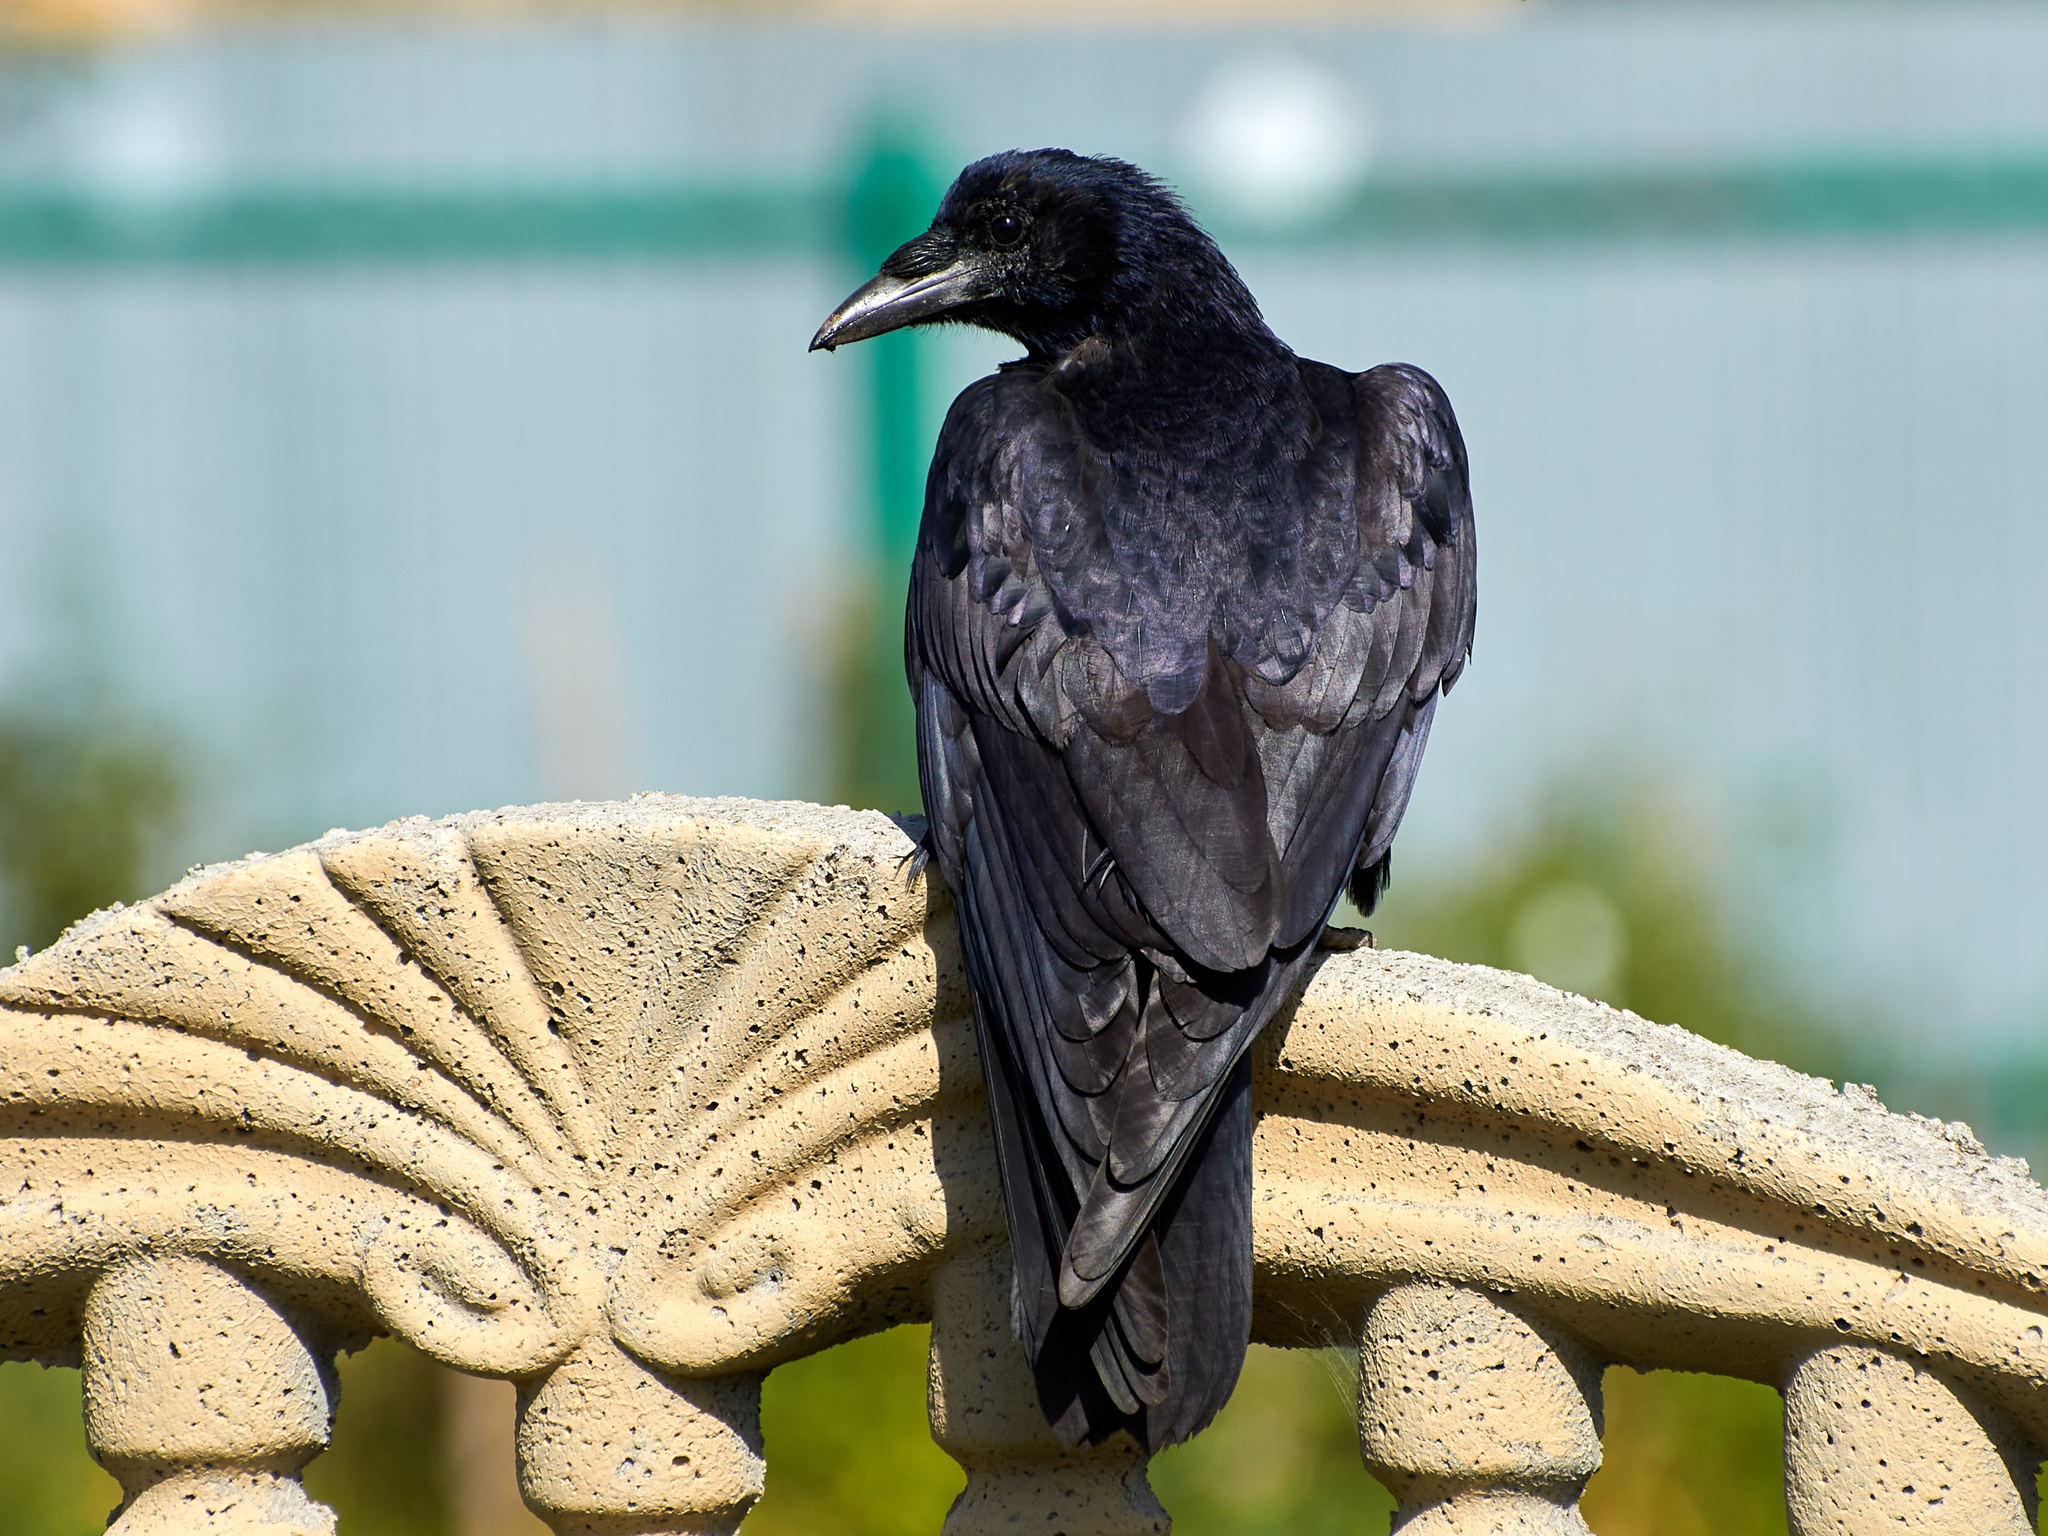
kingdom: Animalia
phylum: Chordata
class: Aves
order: Passeriformes
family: Corvidae
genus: Corvus
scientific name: Corvus frugilegus
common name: Rook
